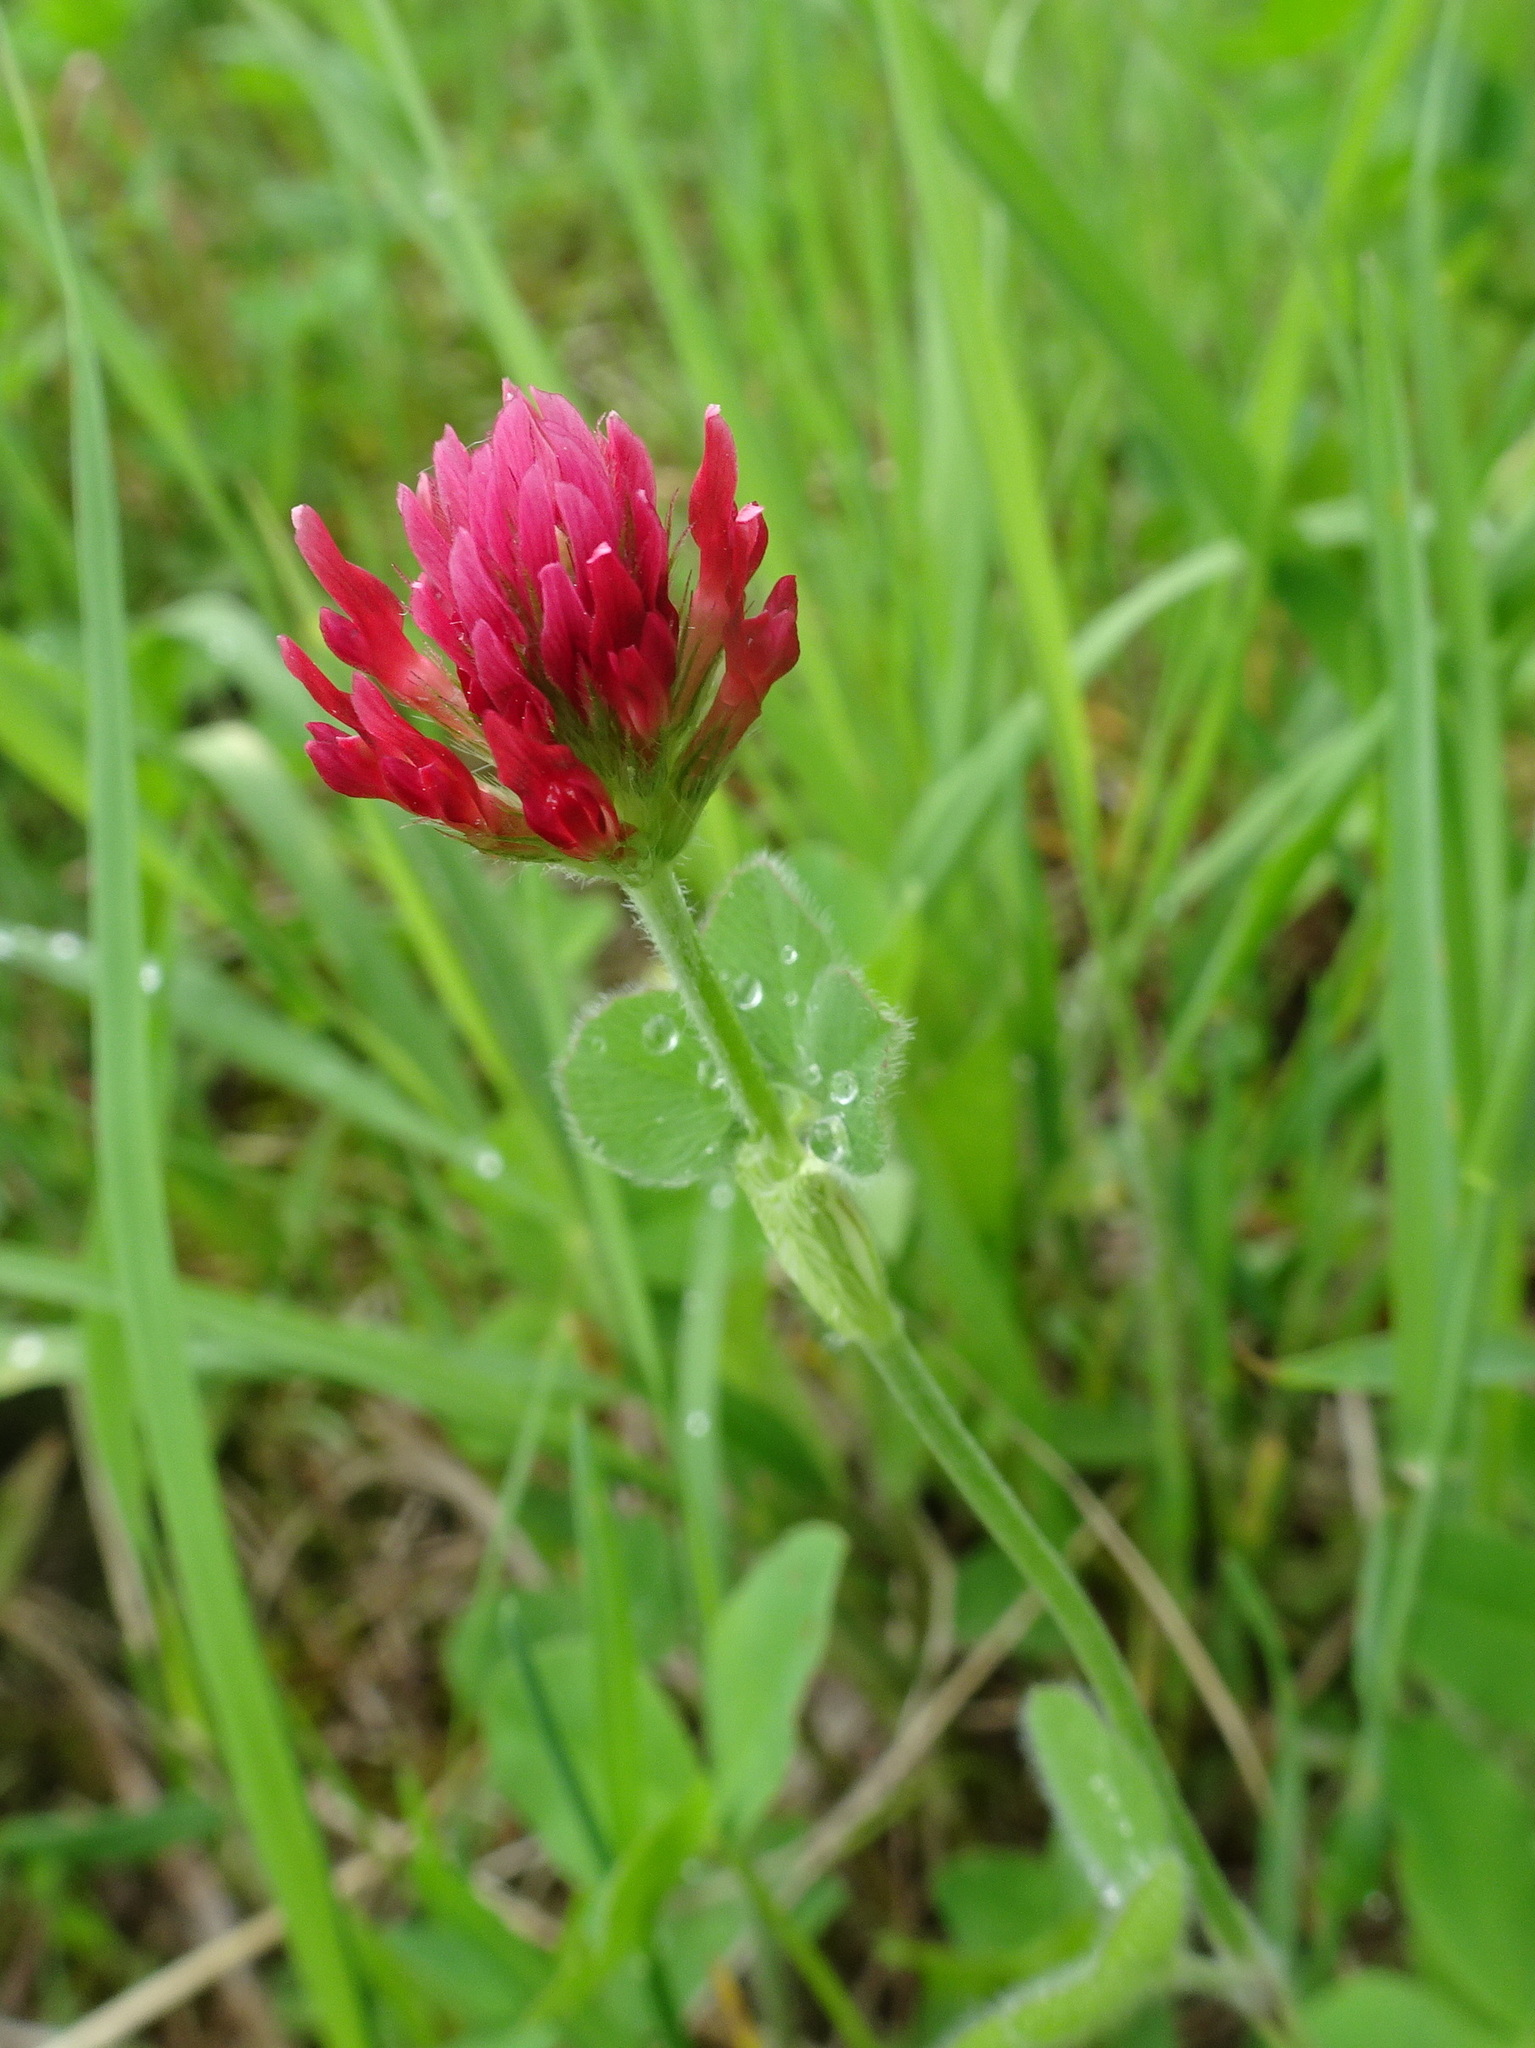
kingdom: Plantae
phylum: Tracheophyta
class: Magnoliopsida
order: Fabales
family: Fabaceae
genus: Trifolium
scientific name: Trifolium incarnatum
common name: Crimson clover
